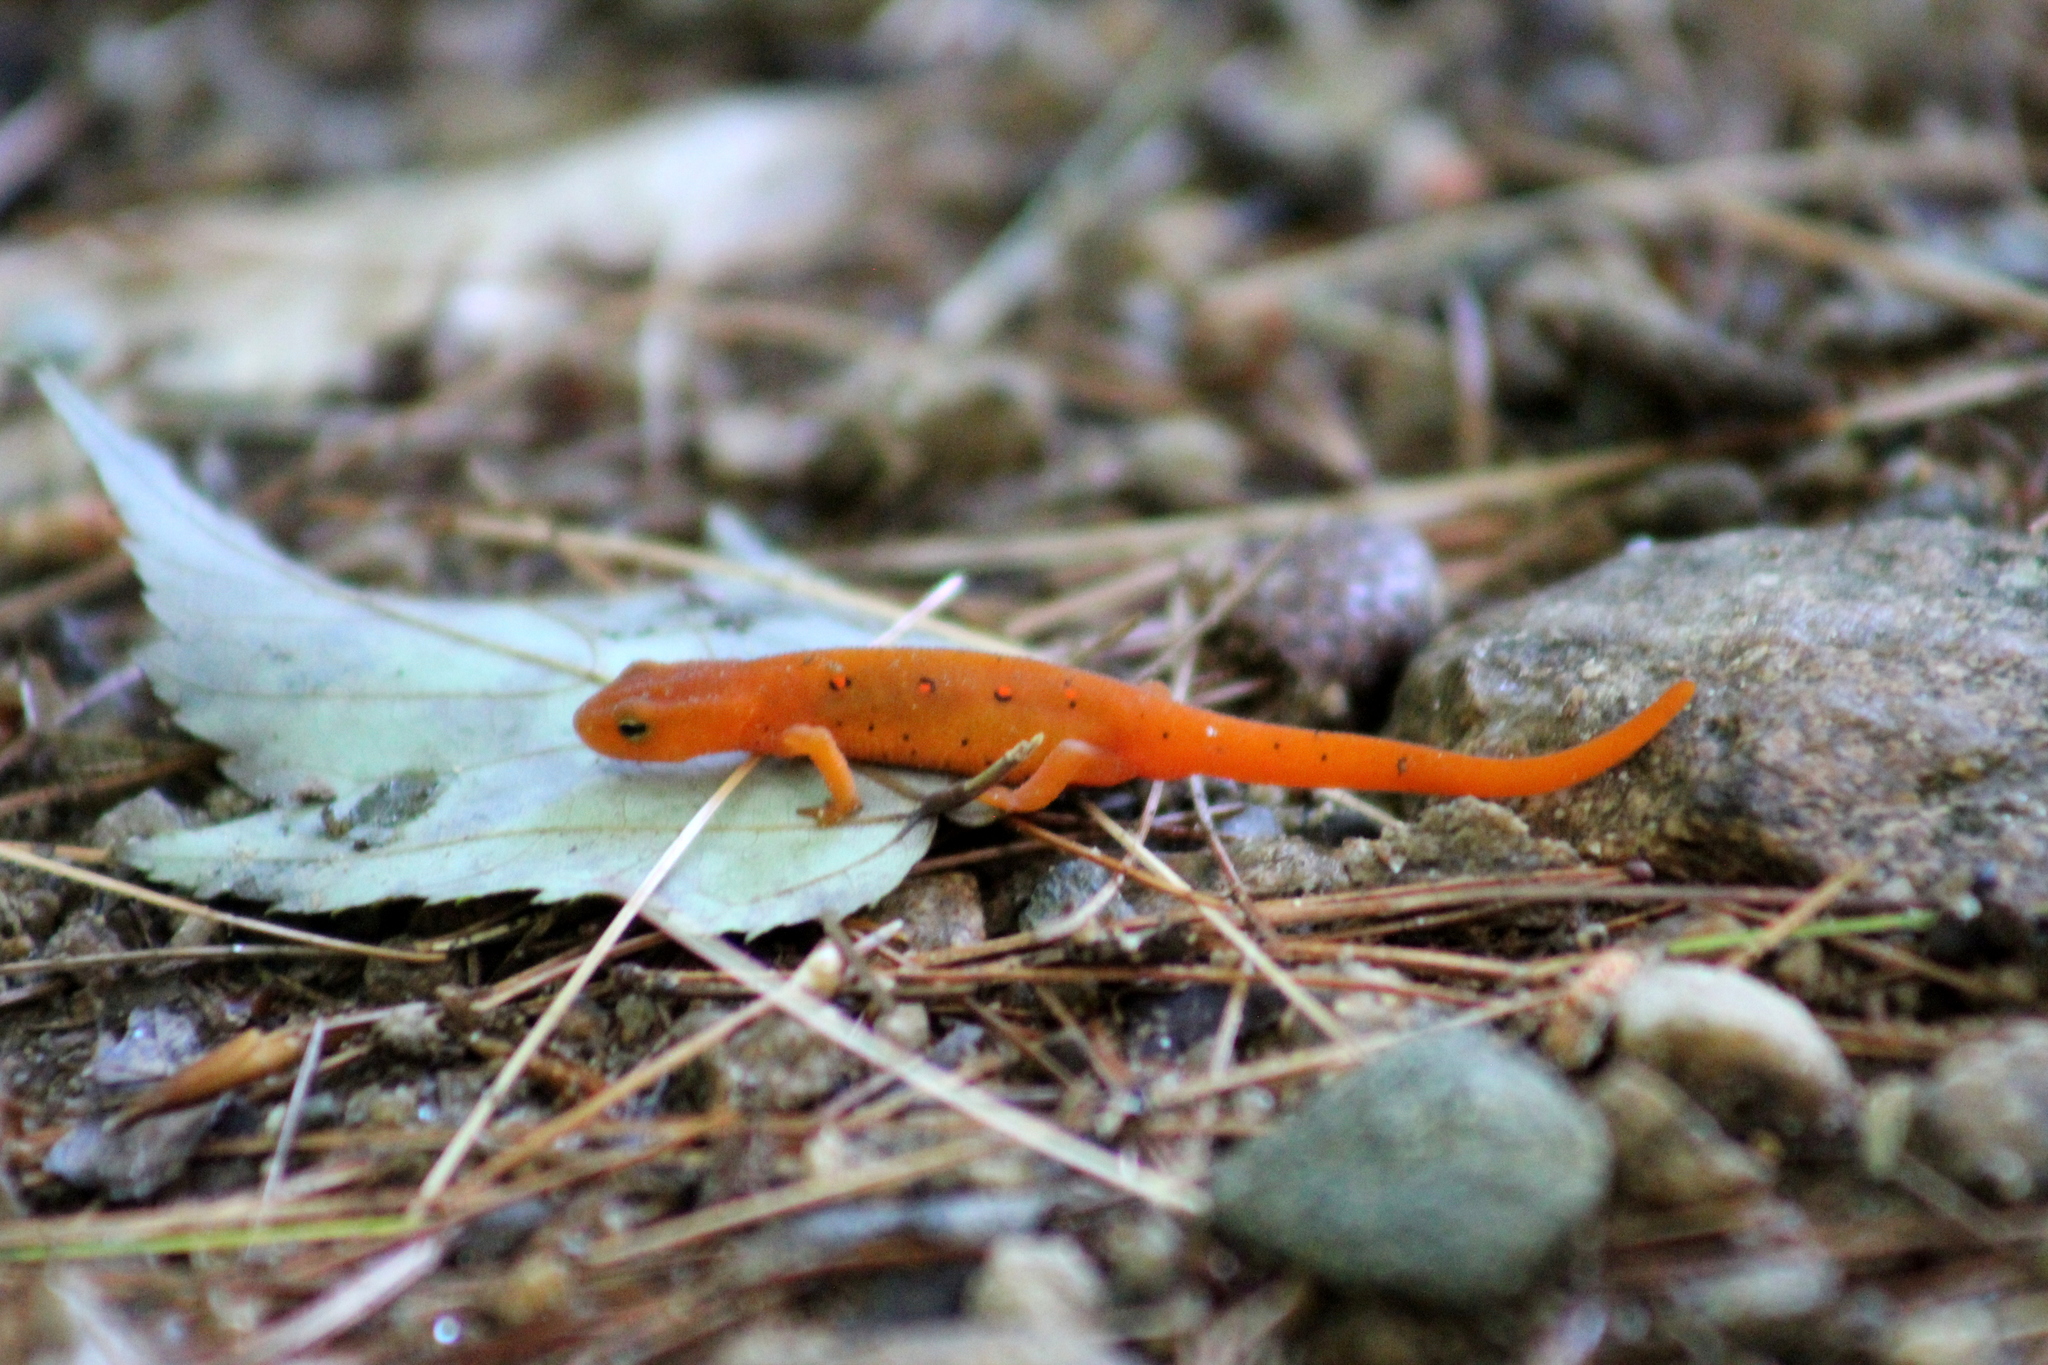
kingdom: Animalia
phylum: Chordata
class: Amphibia
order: Caudata
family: Salamandridae
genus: Notophthalmus
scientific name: Notophthalmus viridescens
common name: Eastern newt
